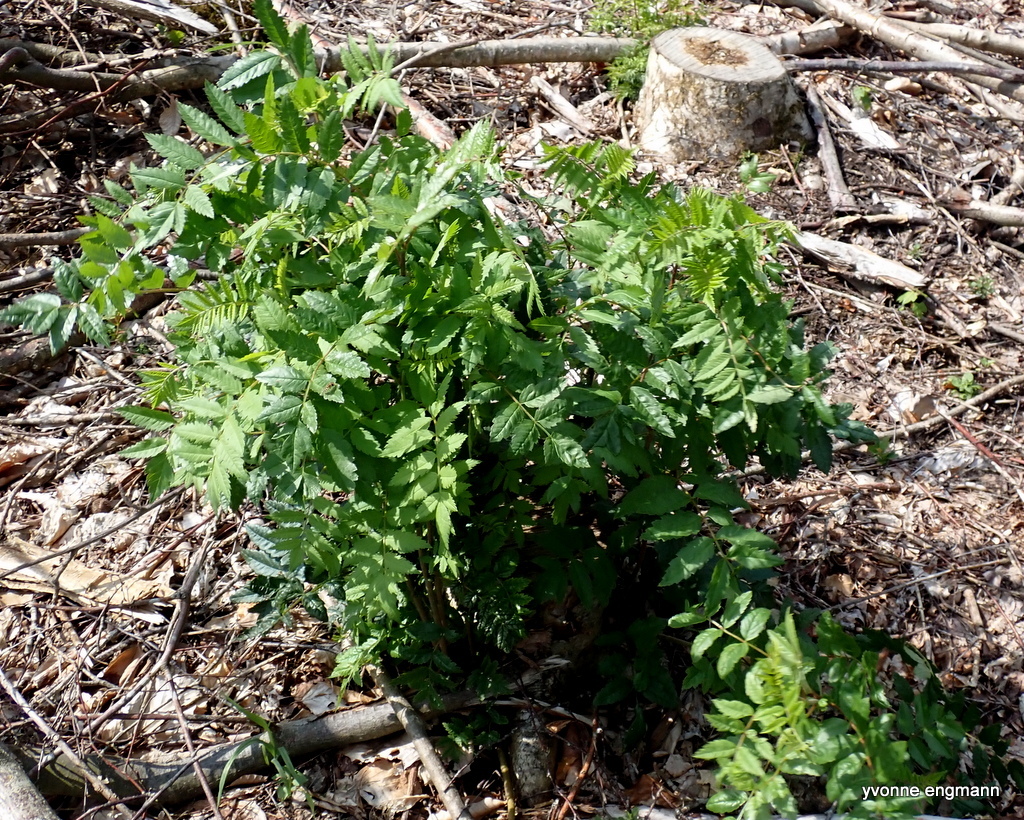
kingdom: Plantae
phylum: Tracheophyta
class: Magnoliopsida
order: Rosales
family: Rosaceae
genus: Sorbus
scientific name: Sorbus aucuparia
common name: Rowan
